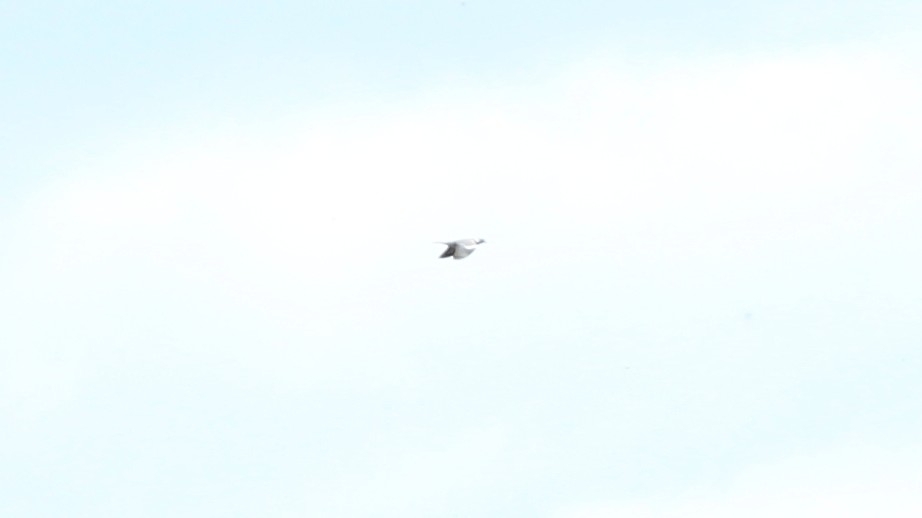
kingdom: Animalia
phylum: Chordata
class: Aves
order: Columbiformes
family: Columbidae
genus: Columba
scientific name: Columba palumbus
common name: Common wood pigeon
